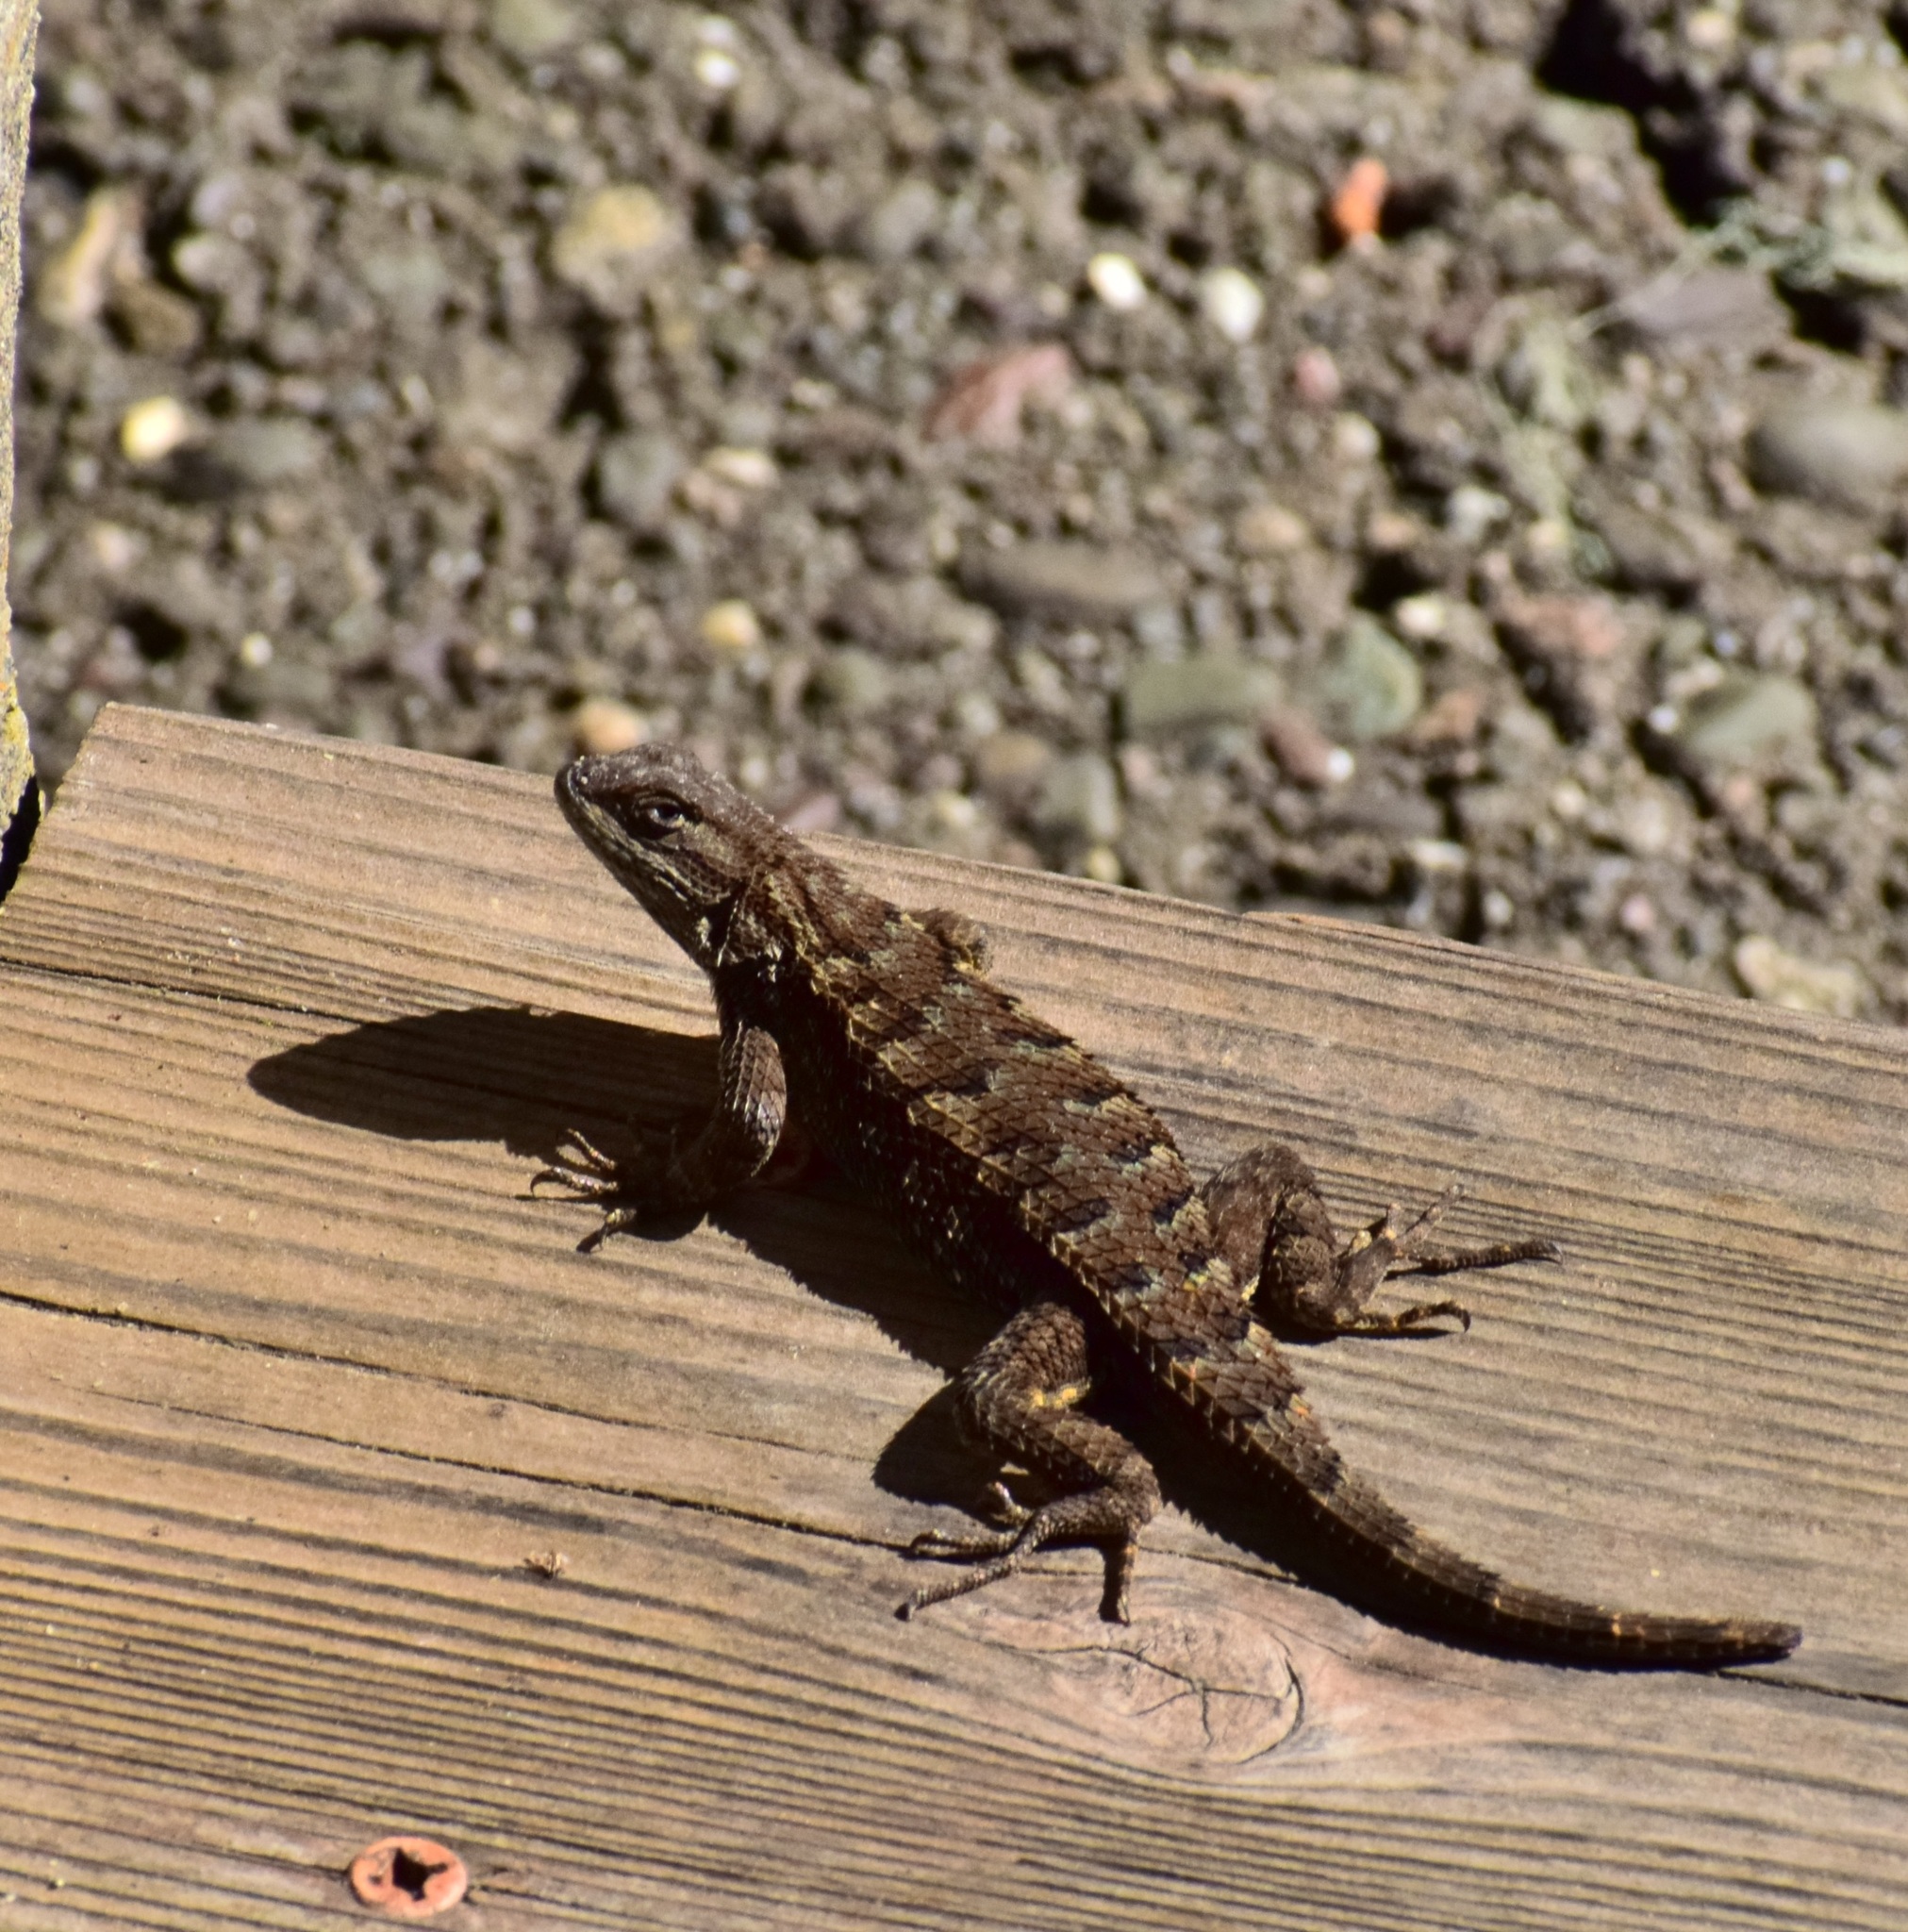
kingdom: Animalia
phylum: Chordata
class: Squamata
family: Phrynosomatidae
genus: Sceloporus
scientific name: Sceloporus occidentalis
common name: Western fence lizard
